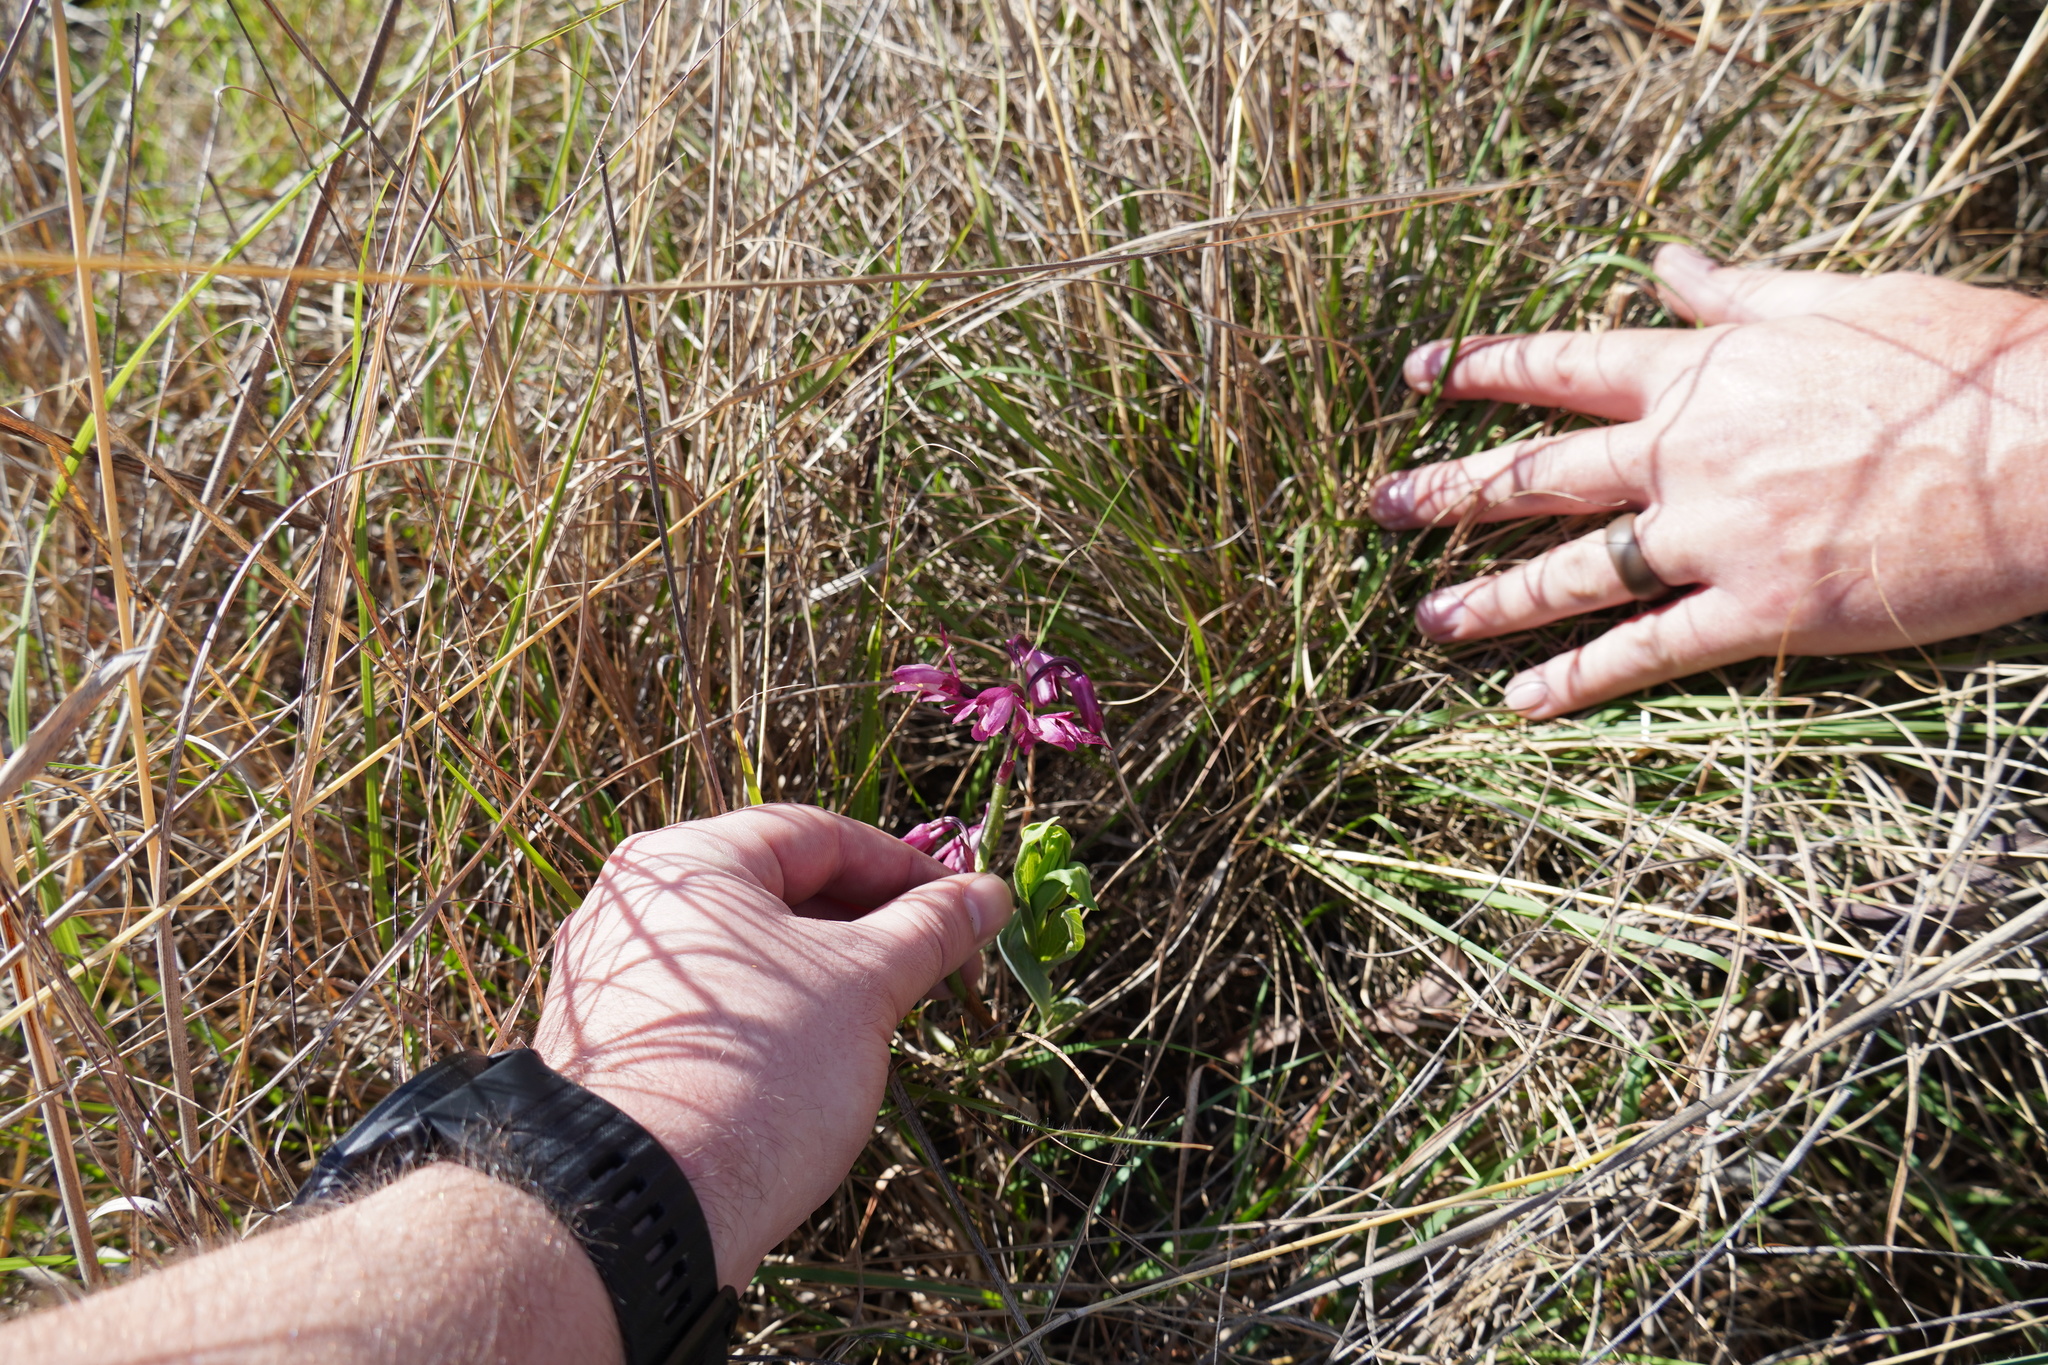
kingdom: Plantae
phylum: Tracheophyta
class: Liliopsida
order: Asparagales
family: Orchidaceae
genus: Eulophia
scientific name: Eulophia hians
